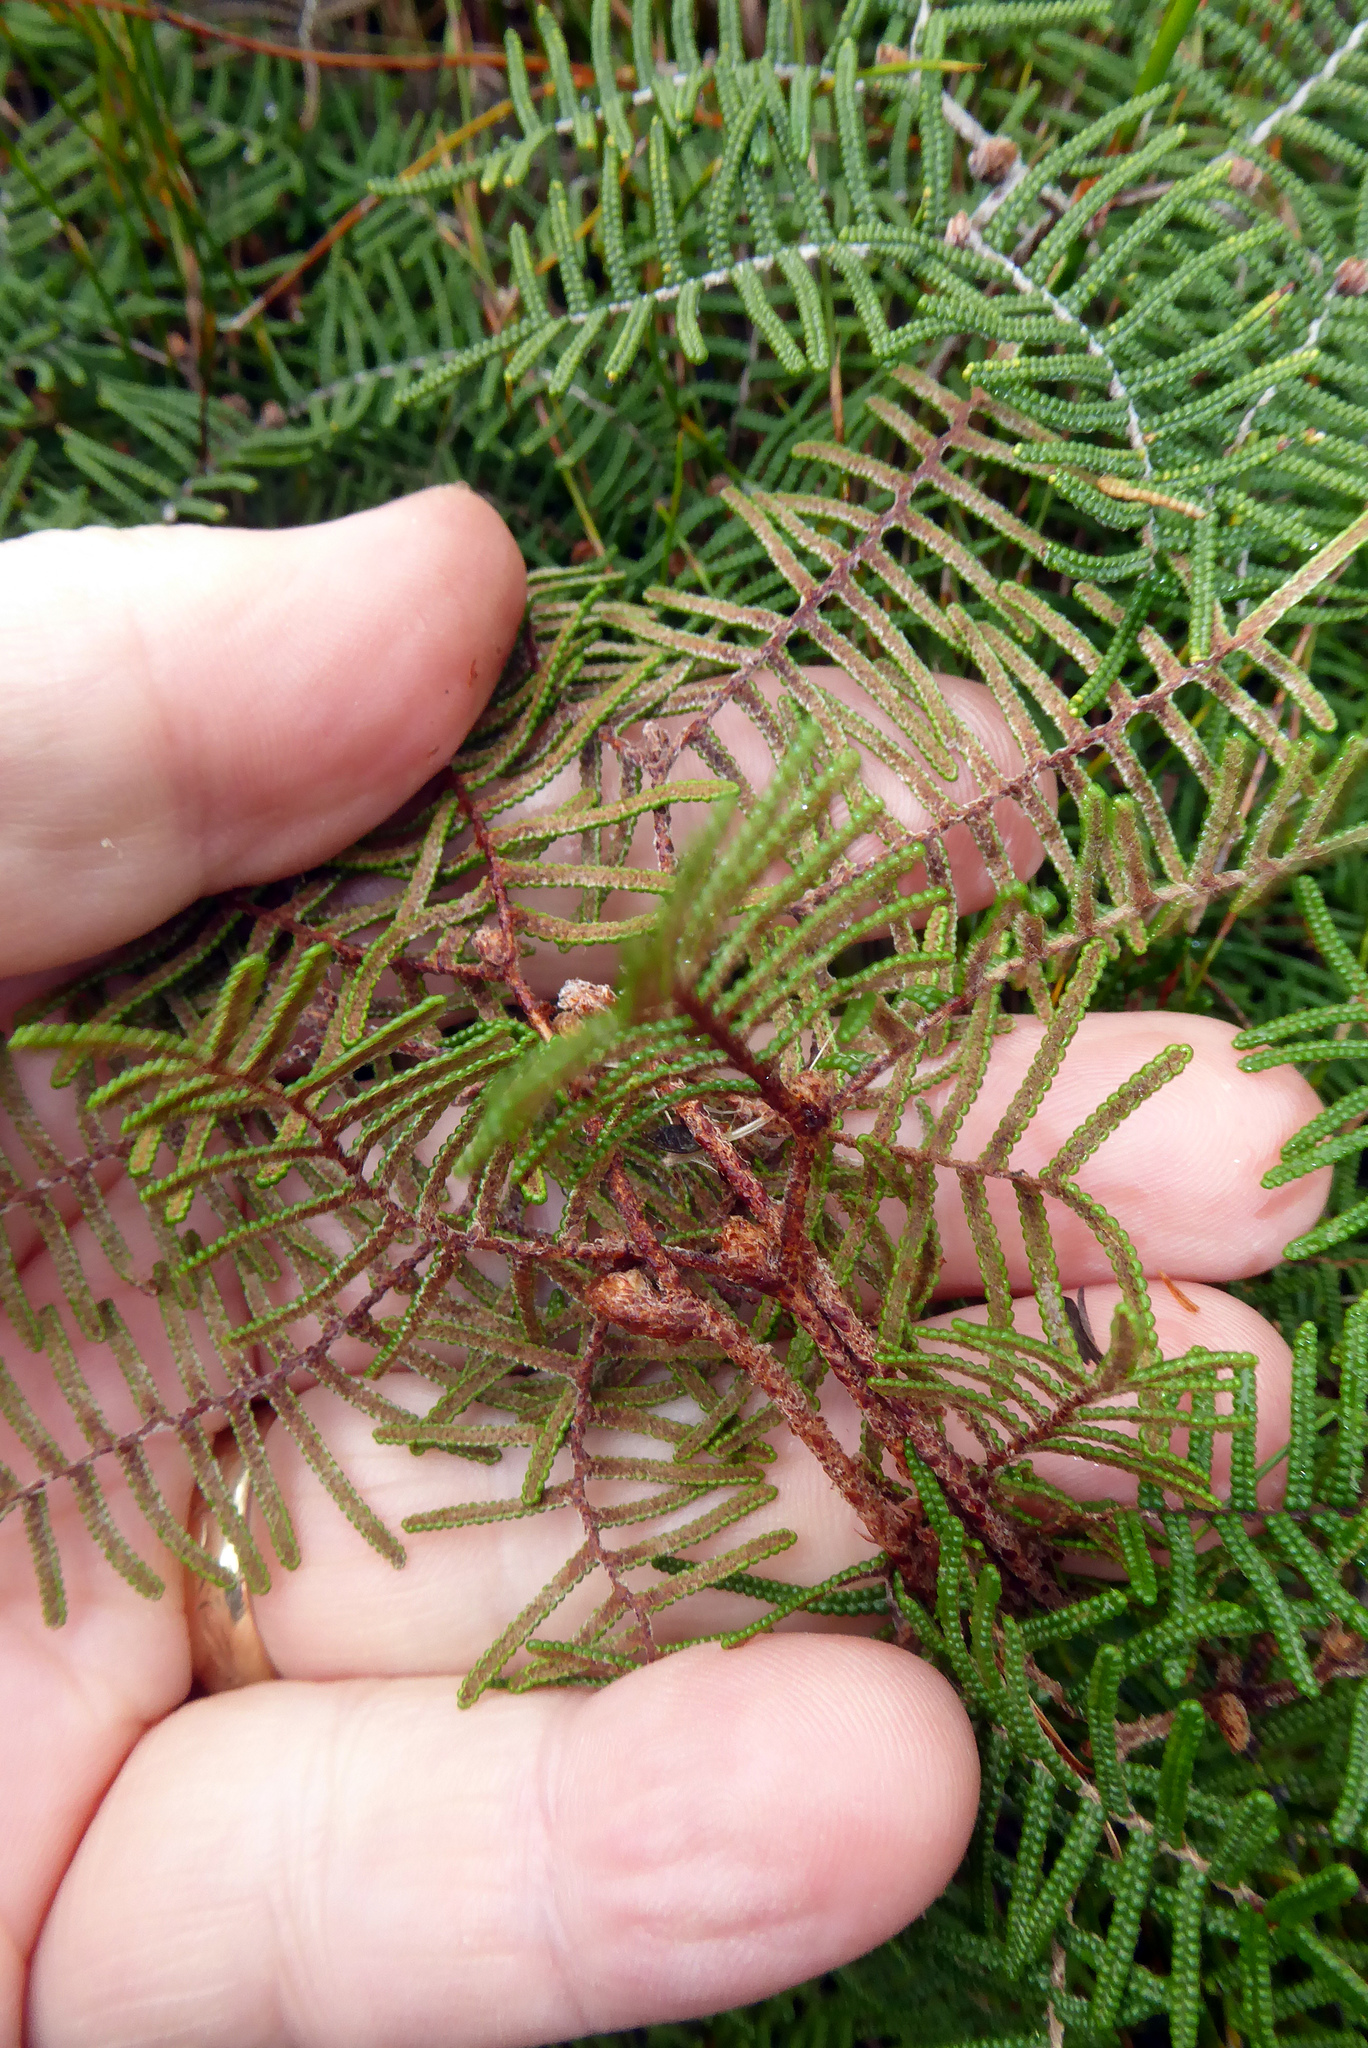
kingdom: Plantae
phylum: Tracheophyta
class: Polypodiopsida
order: Gleicheniales
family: Gleicheniaceae
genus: Gleichenia
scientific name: Gleichenia alpina
